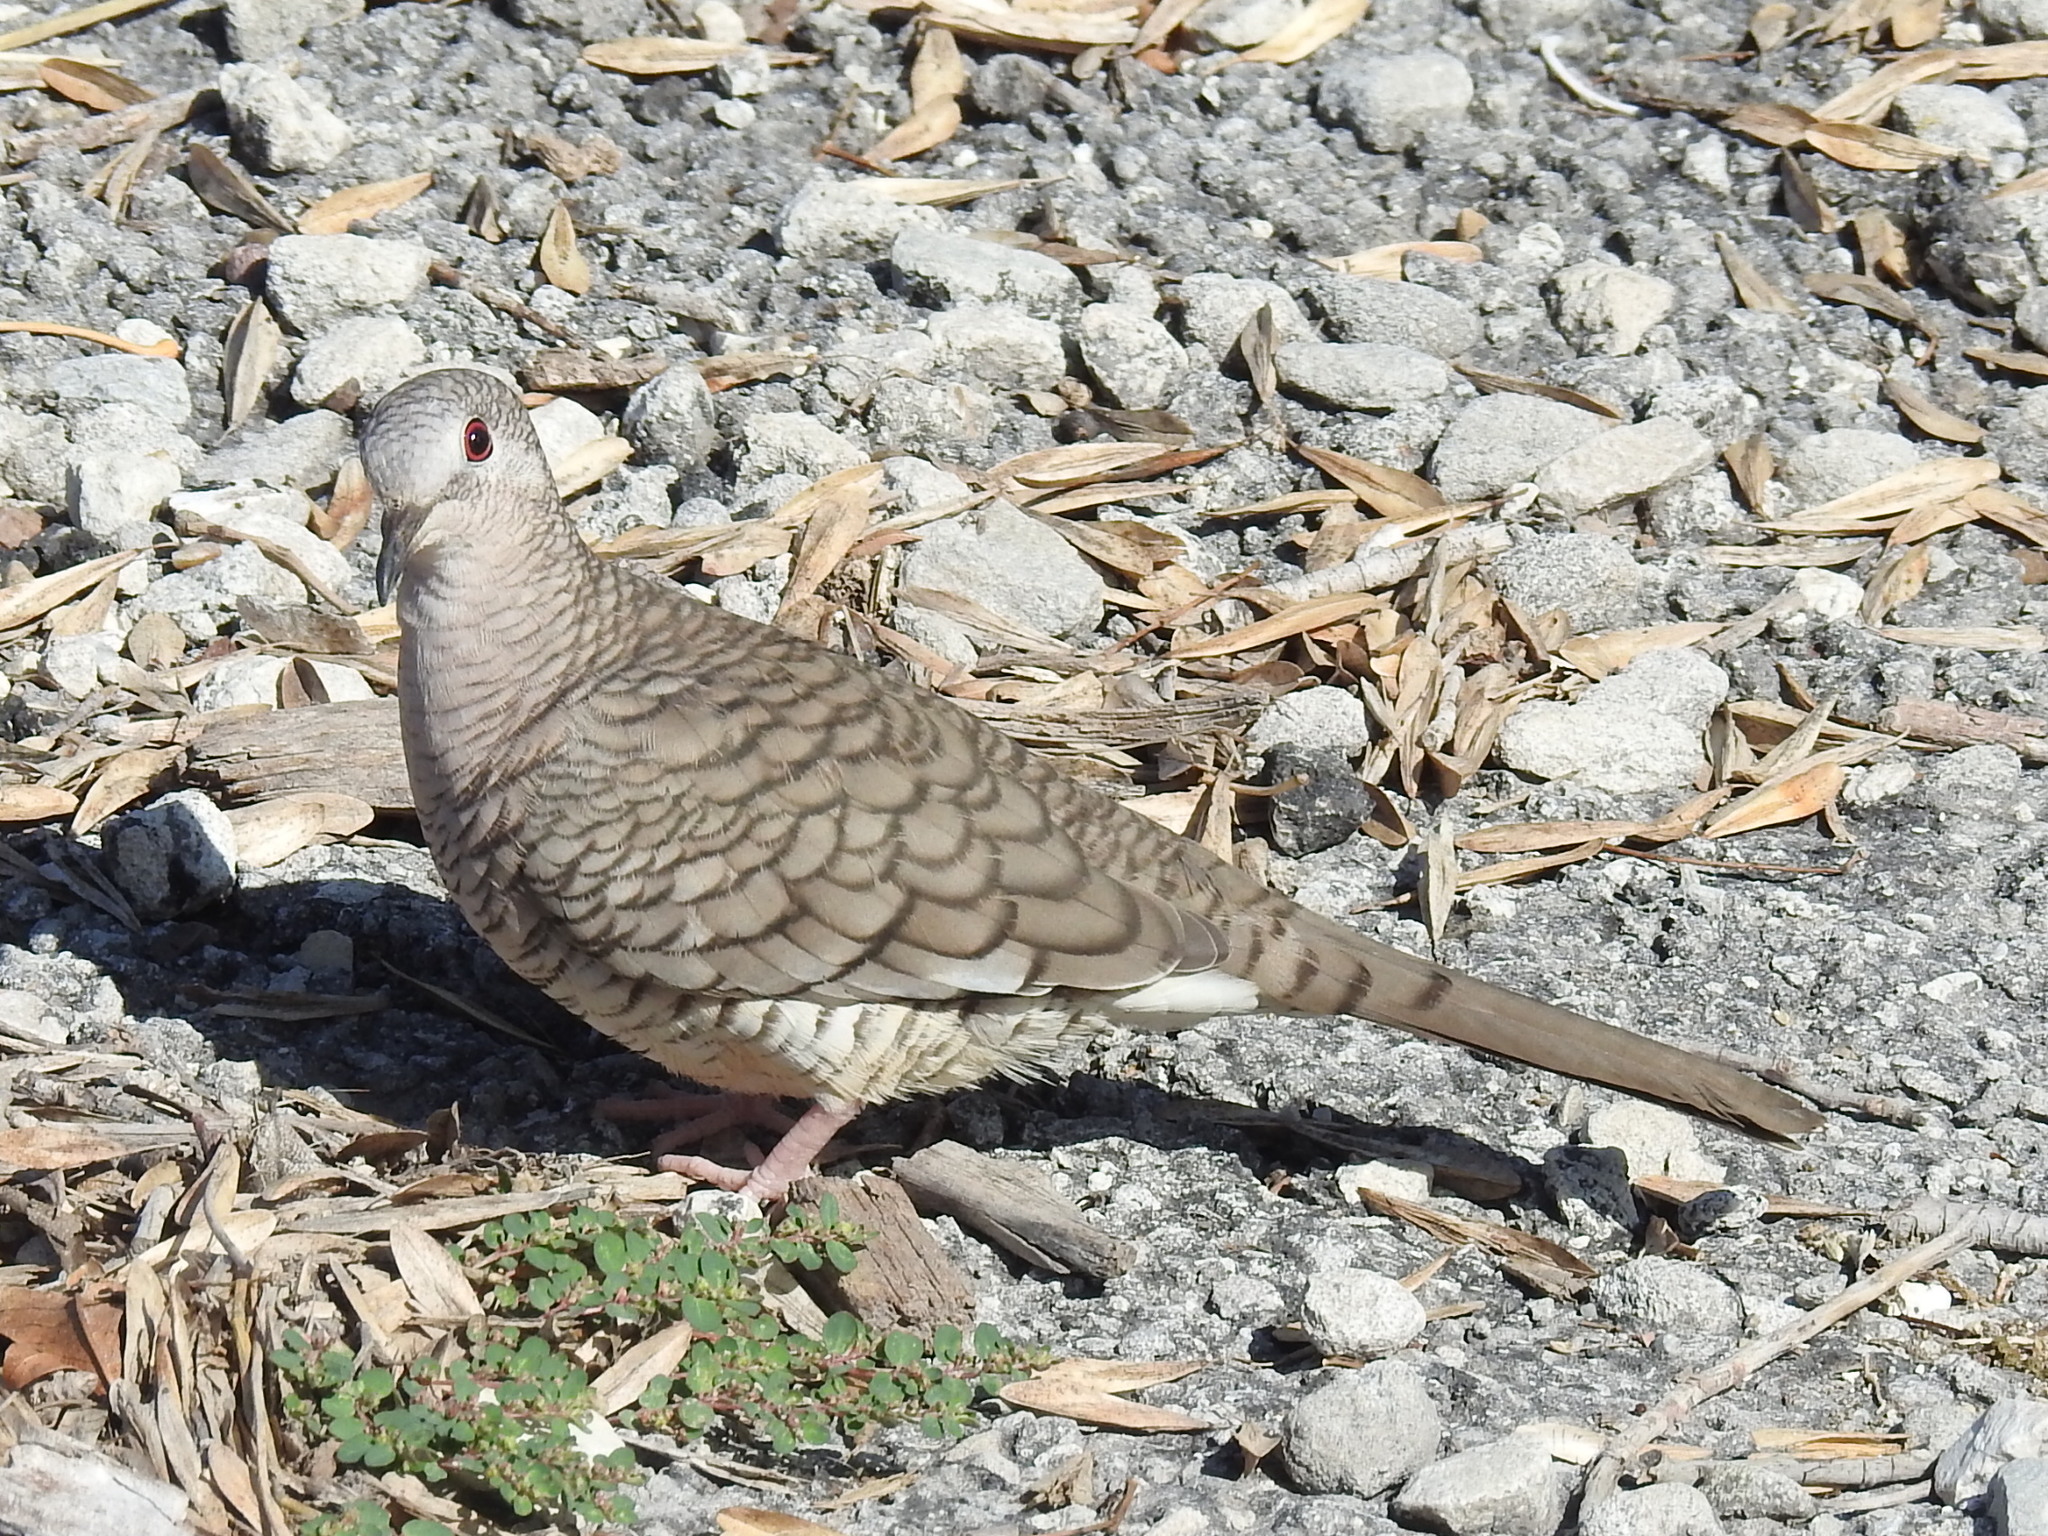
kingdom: Animalia
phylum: Chordata
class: Aves
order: Columbiformes
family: Columbidae
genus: Columbina
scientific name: Columbina inca
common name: Inca dove
